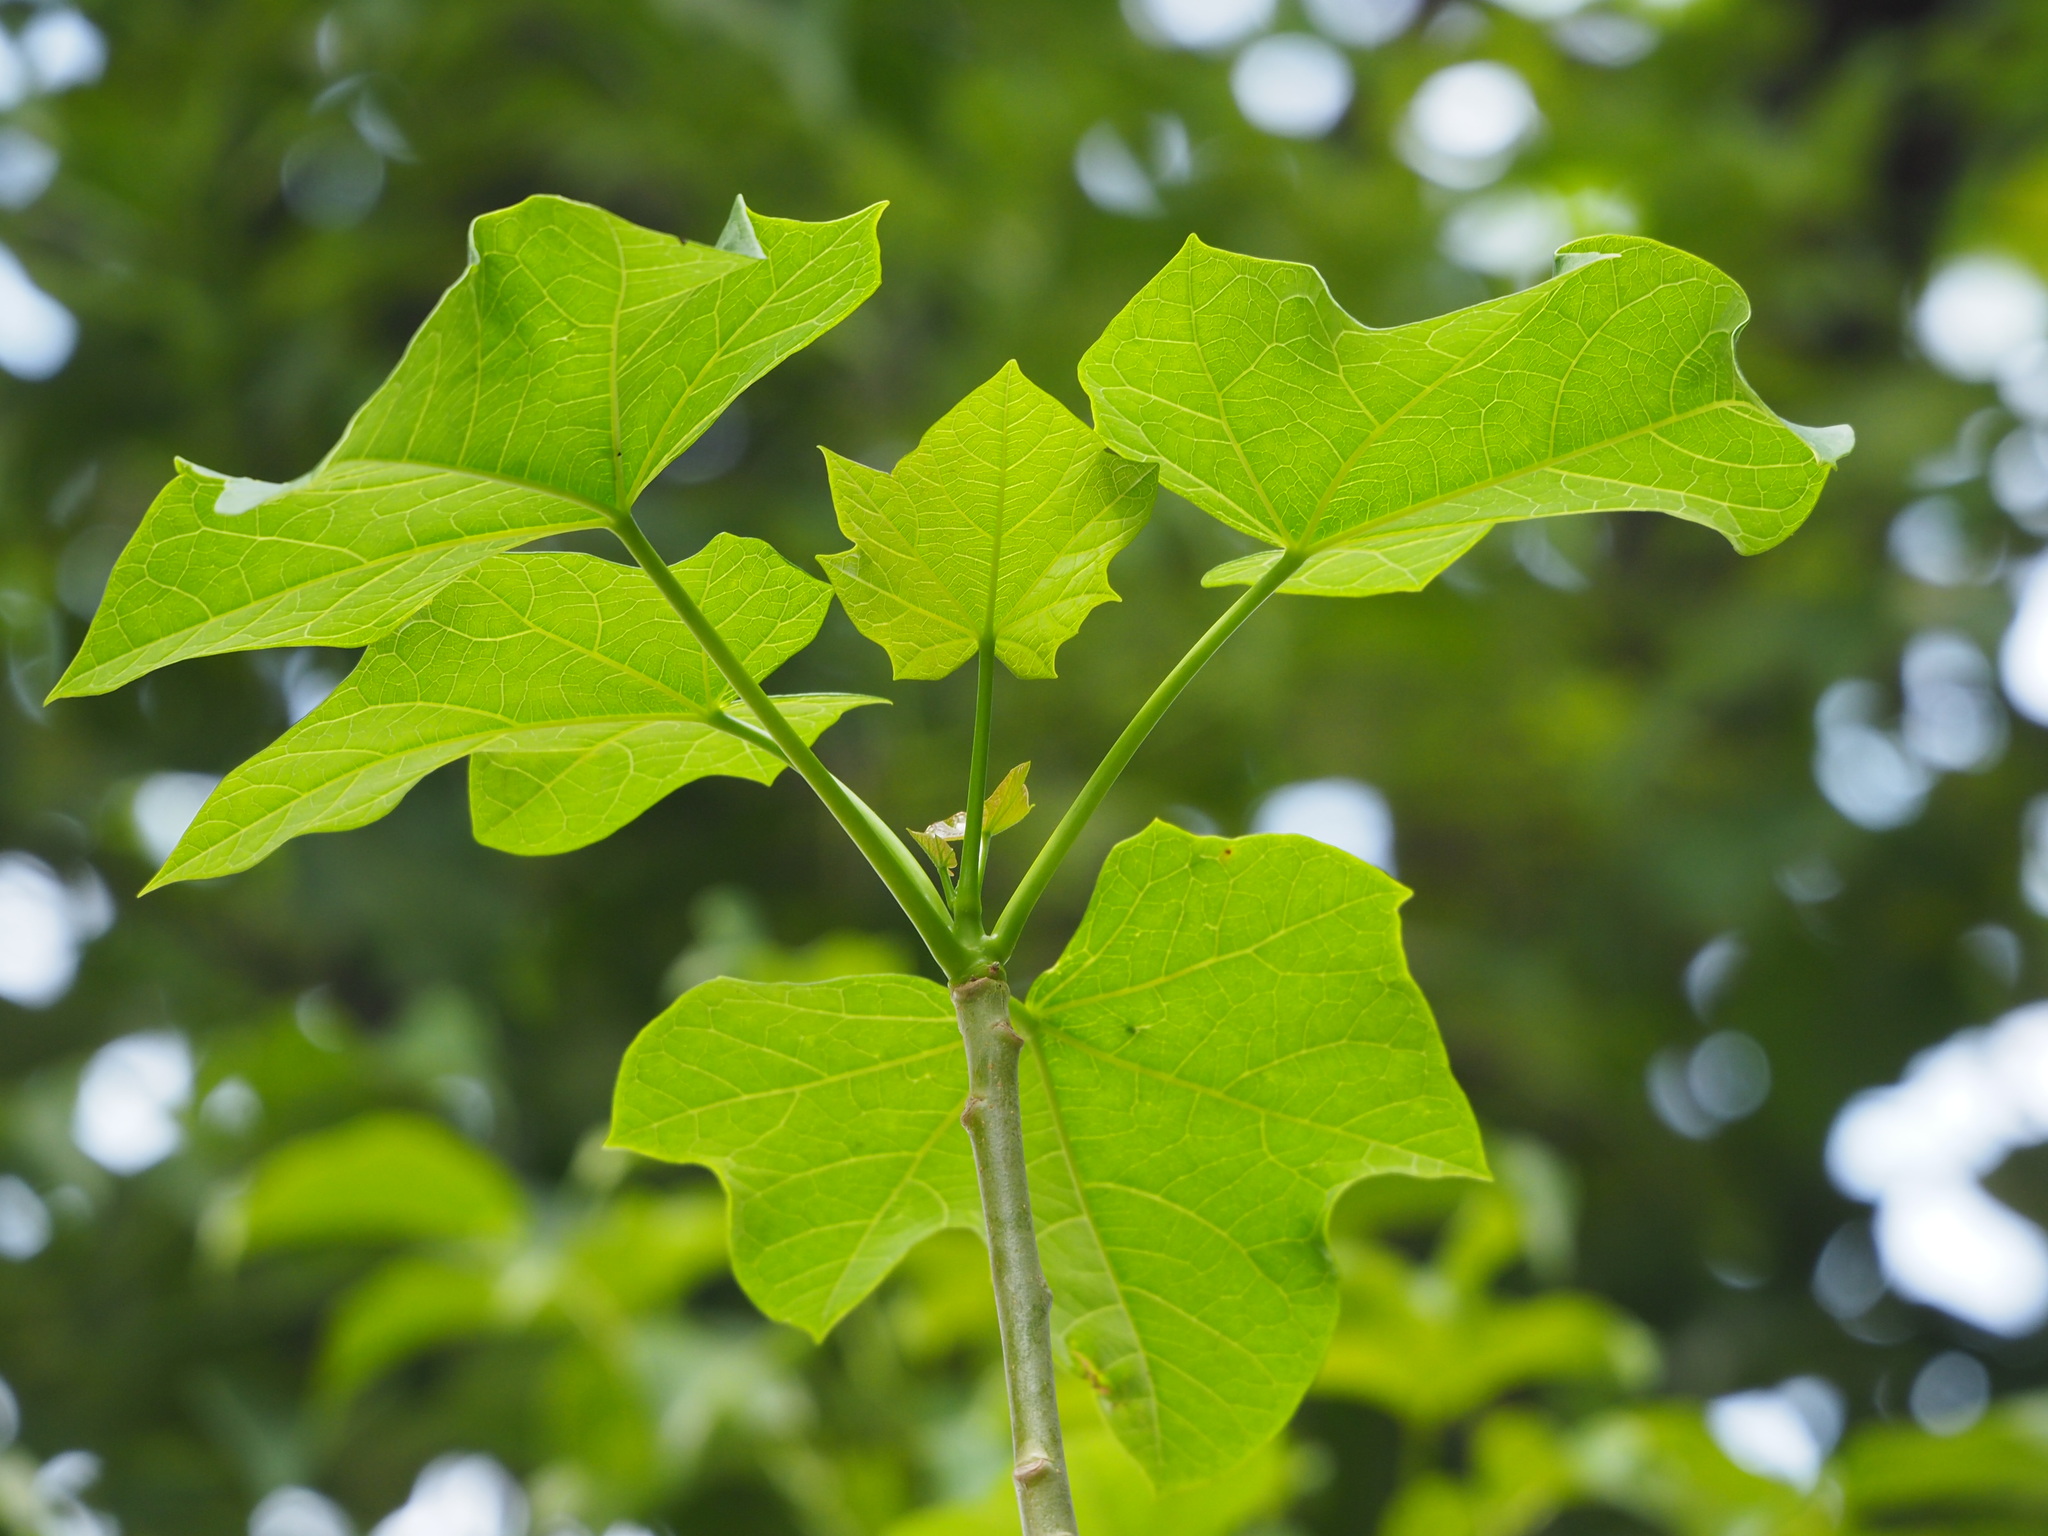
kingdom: Plantae
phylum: Tracheophyta
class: Magnoliopsida
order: Malpighiales
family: Euphorbiaceae
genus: Jatropha
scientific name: Jatropha curcas
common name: Barbados nut
